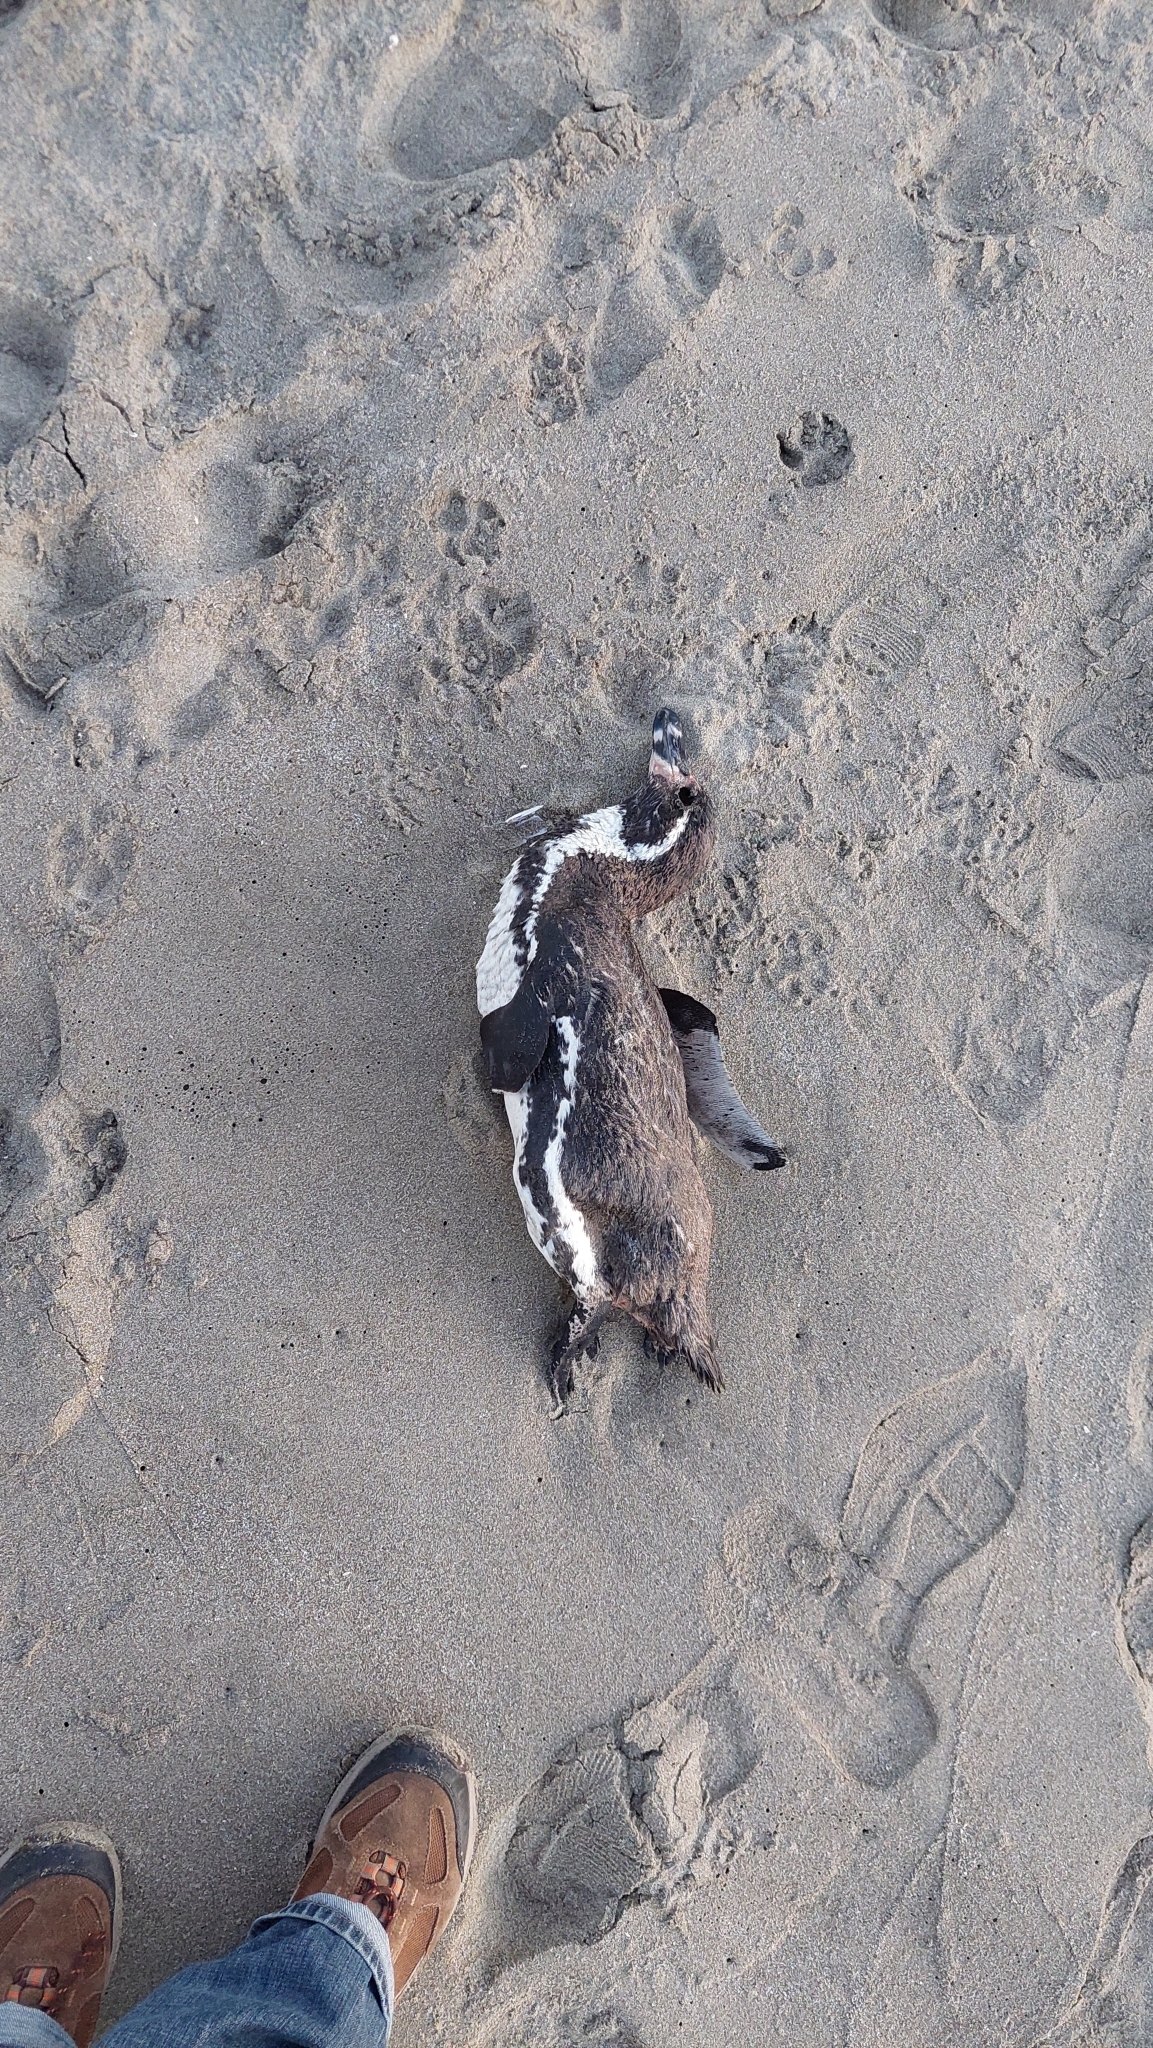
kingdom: Animalia
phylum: Chordata
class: Aves
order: Sphenisciformes
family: Spheniscidae
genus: Spheniscus
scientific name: Spheniscus humboldti
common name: Humboldt penguin
